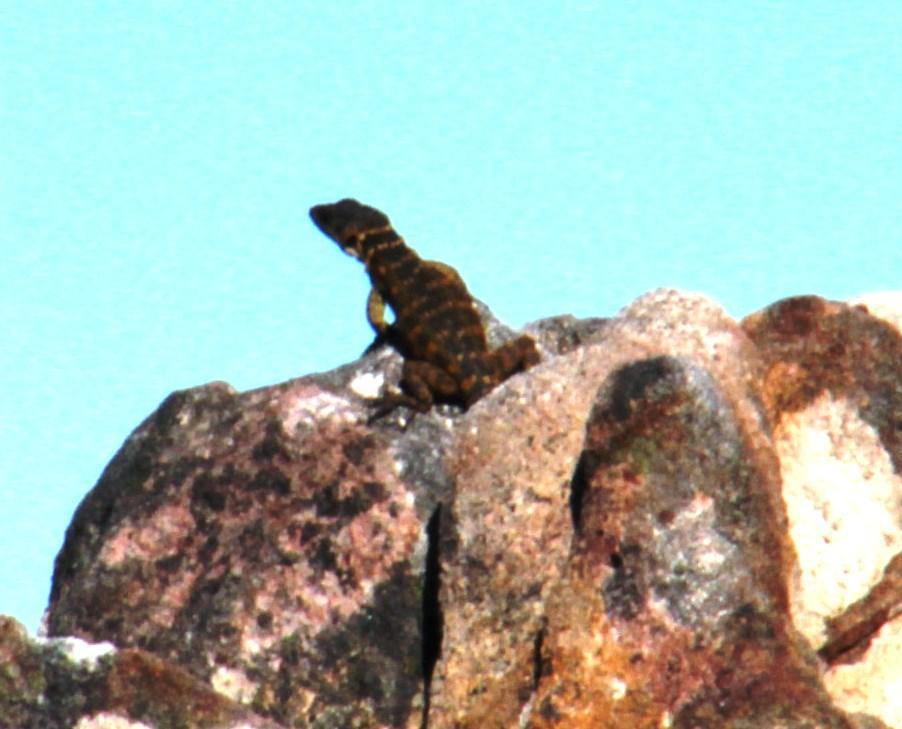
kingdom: Animalia
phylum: Chordata
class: Squamata
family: Cordylidae
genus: Pseudocordylus
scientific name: Pseudocordylus microlepidotus
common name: Cape crag lizard
